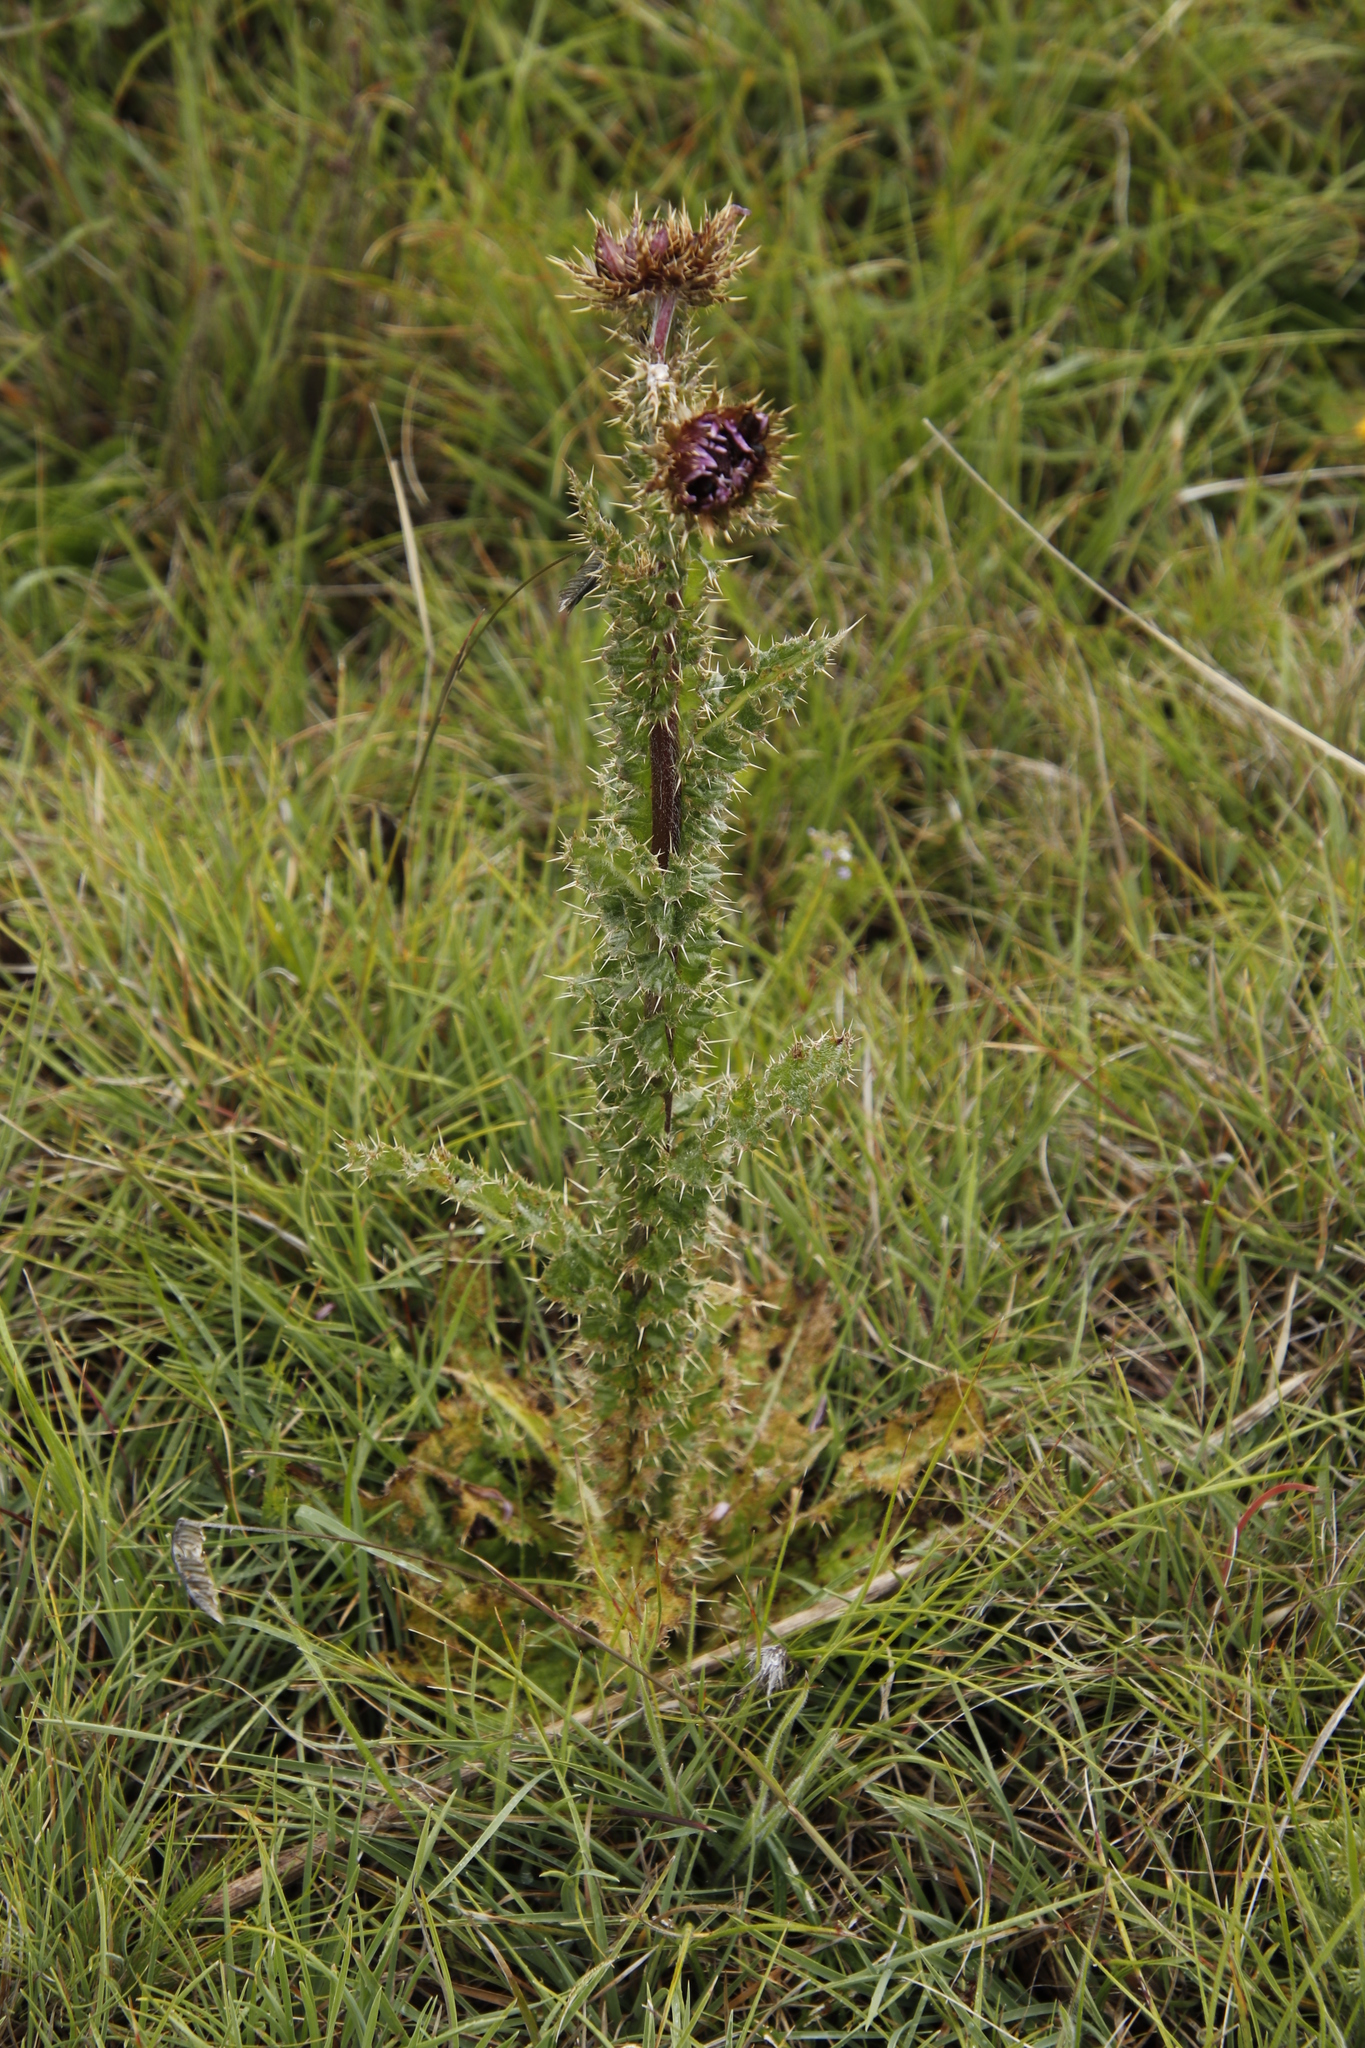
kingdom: Plantae
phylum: Tracheophyta
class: Magnoliopsida
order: Asterales
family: Asteraceae
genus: Berkheya
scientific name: Berkheya purpurea
